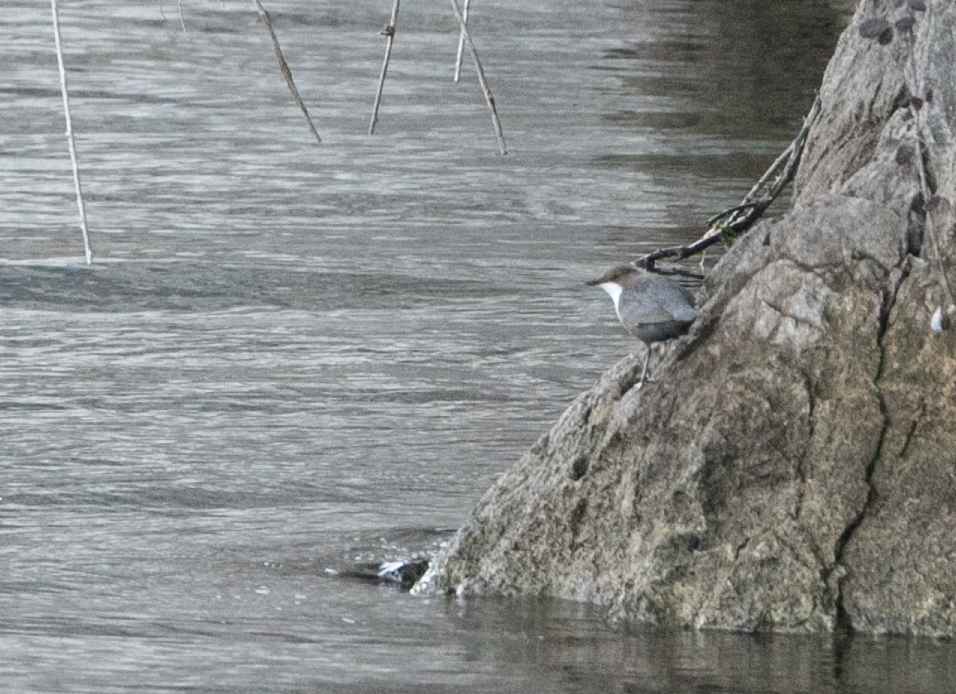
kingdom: Animalia
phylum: Chordata
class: Aves
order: Passeriformes
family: Cinclidae
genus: Cinclus
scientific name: Cinclus cinclus
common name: White-throated dipper
